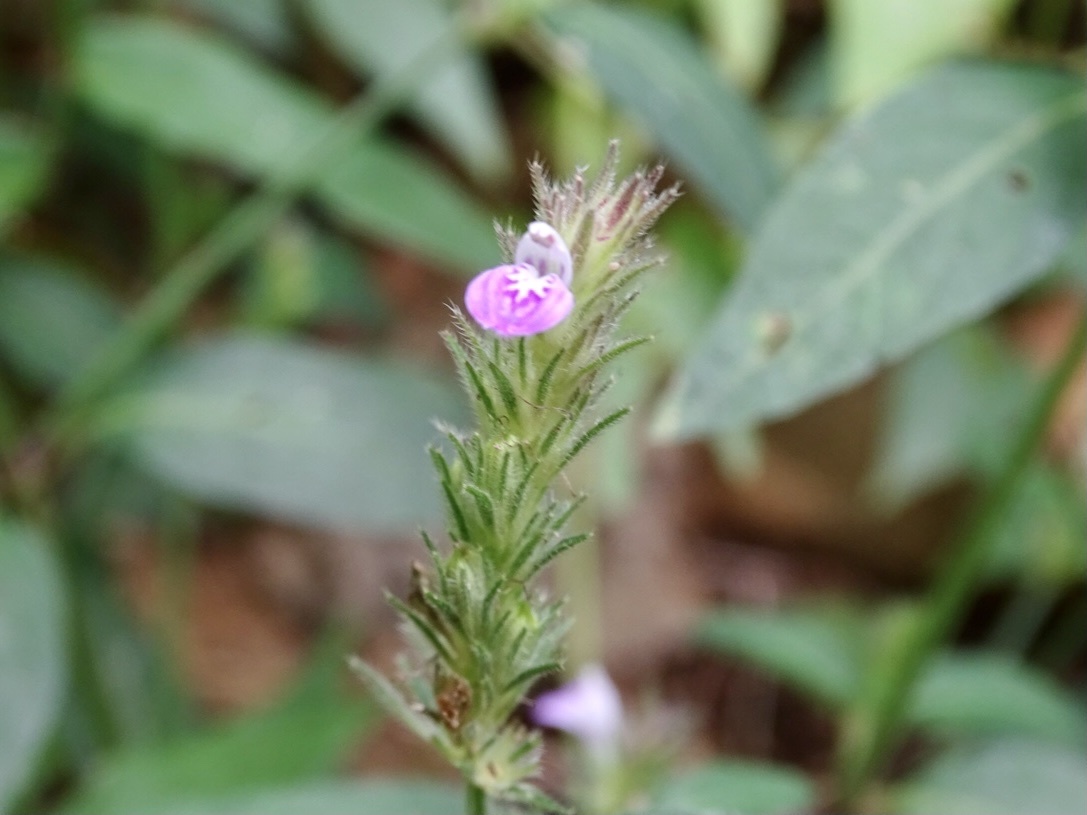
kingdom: Plantae
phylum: Tracheophyta
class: Magnoliopsida
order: Lamiales
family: Acanthaceae
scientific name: Acanthaceae
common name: Acanthaceae
